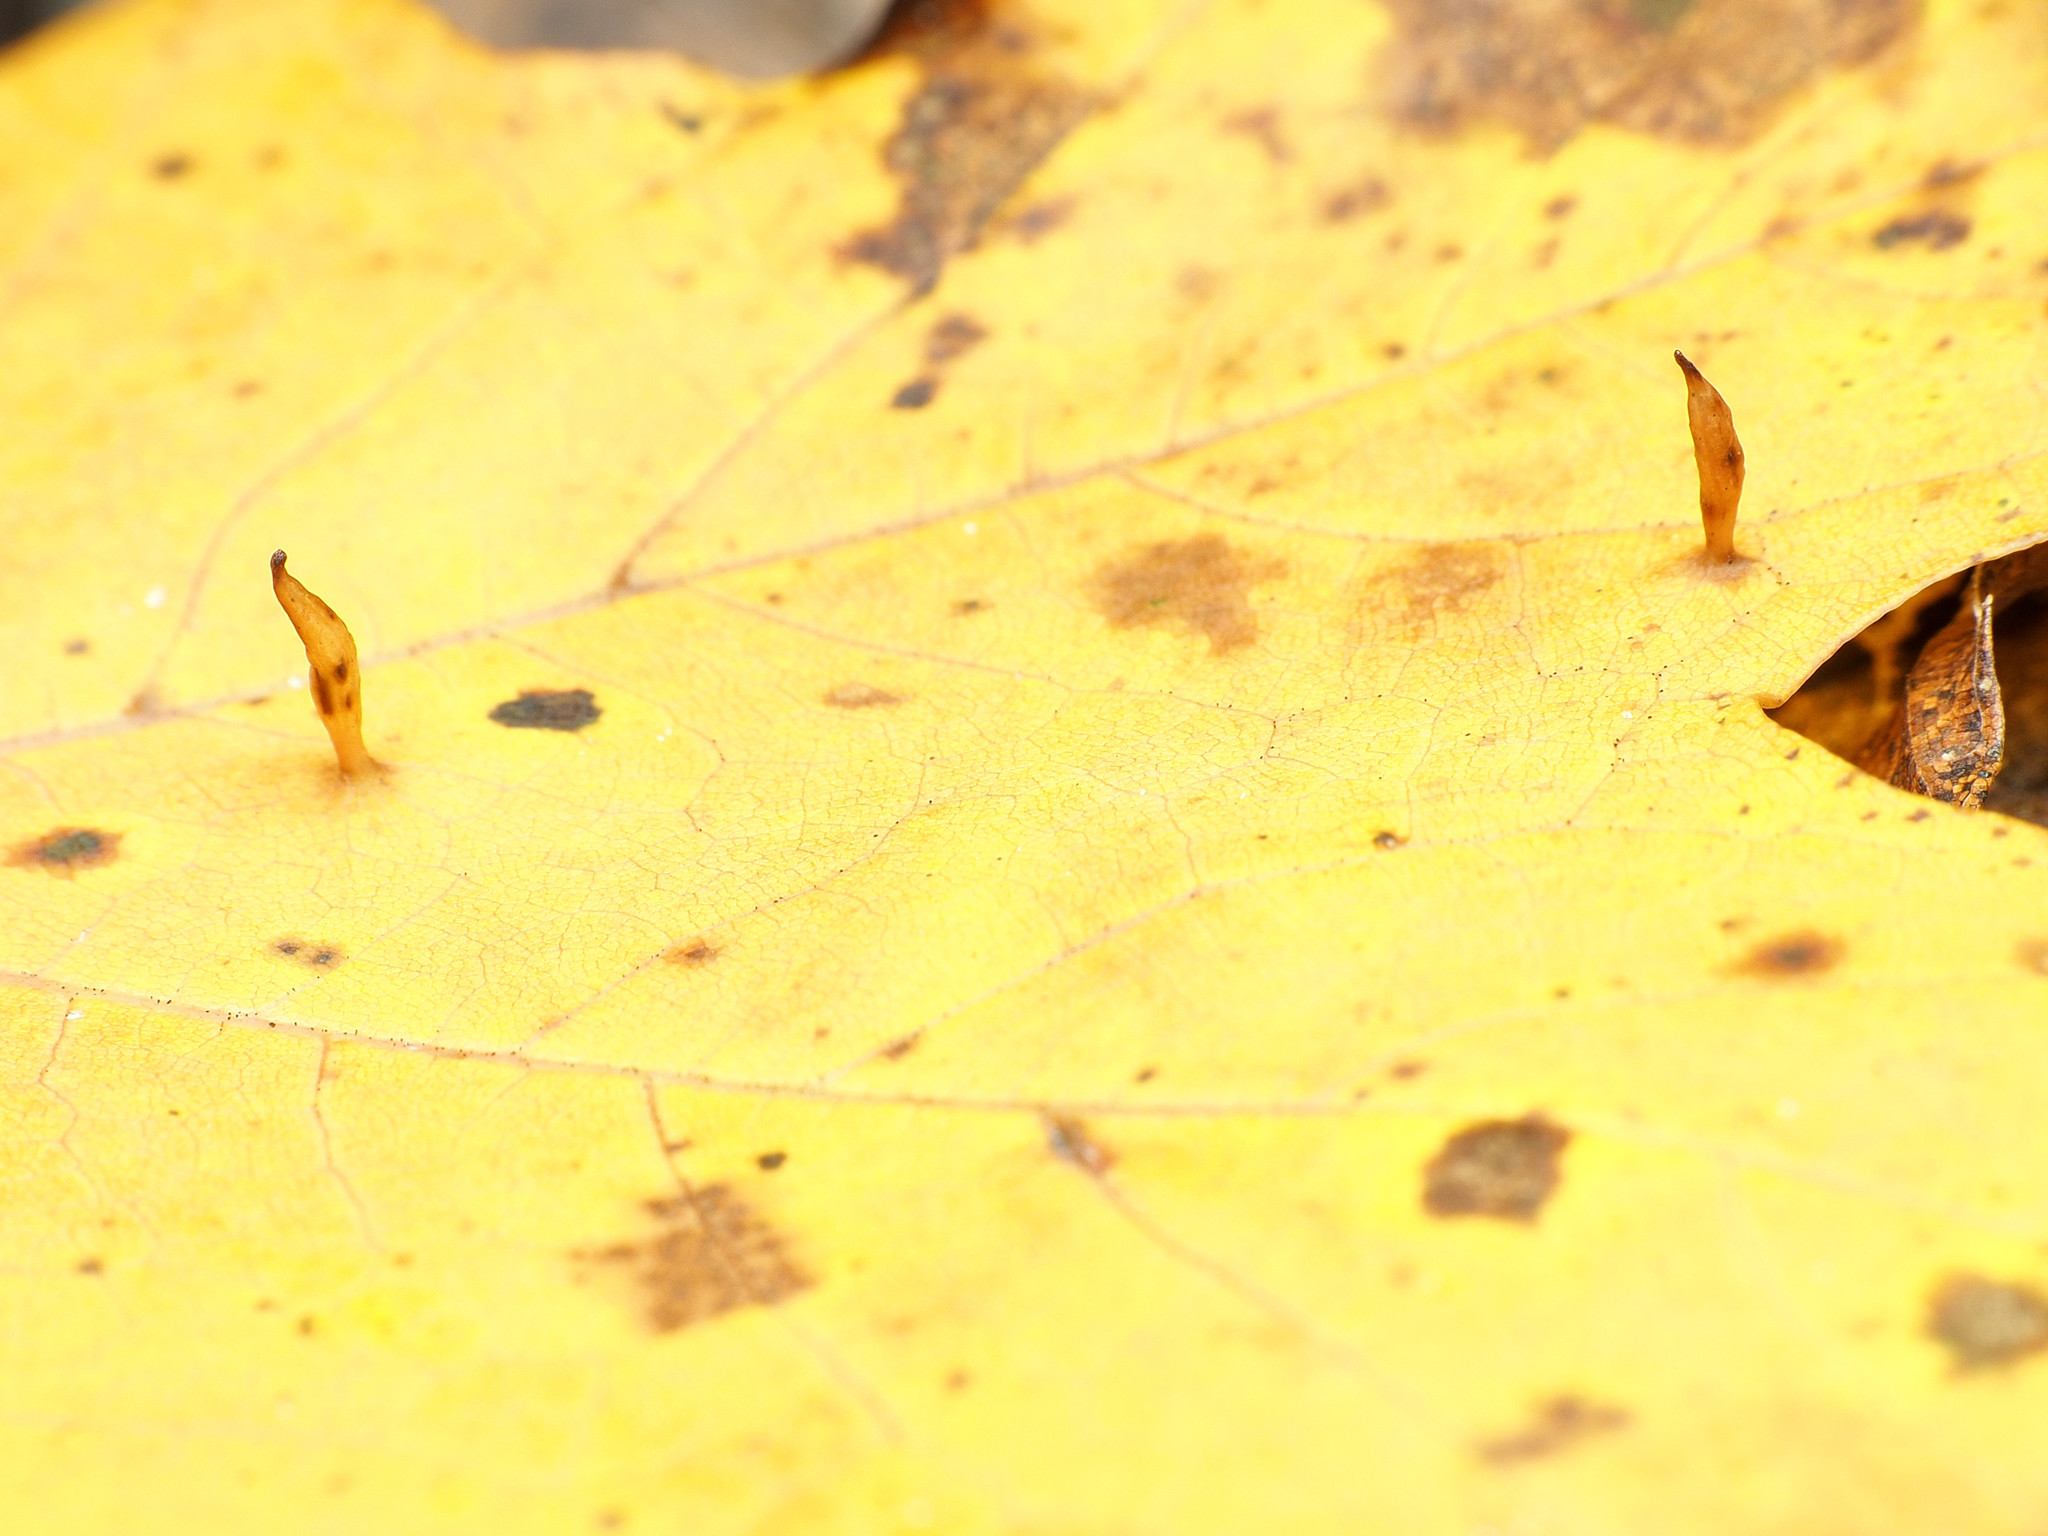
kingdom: Animalia
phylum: Arthropoda
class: Arachnida
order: Trombidiformes
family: Eriophyidae
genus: Vasates
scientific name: Vasates aceriscrumena
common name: Maple spindle gall mite
